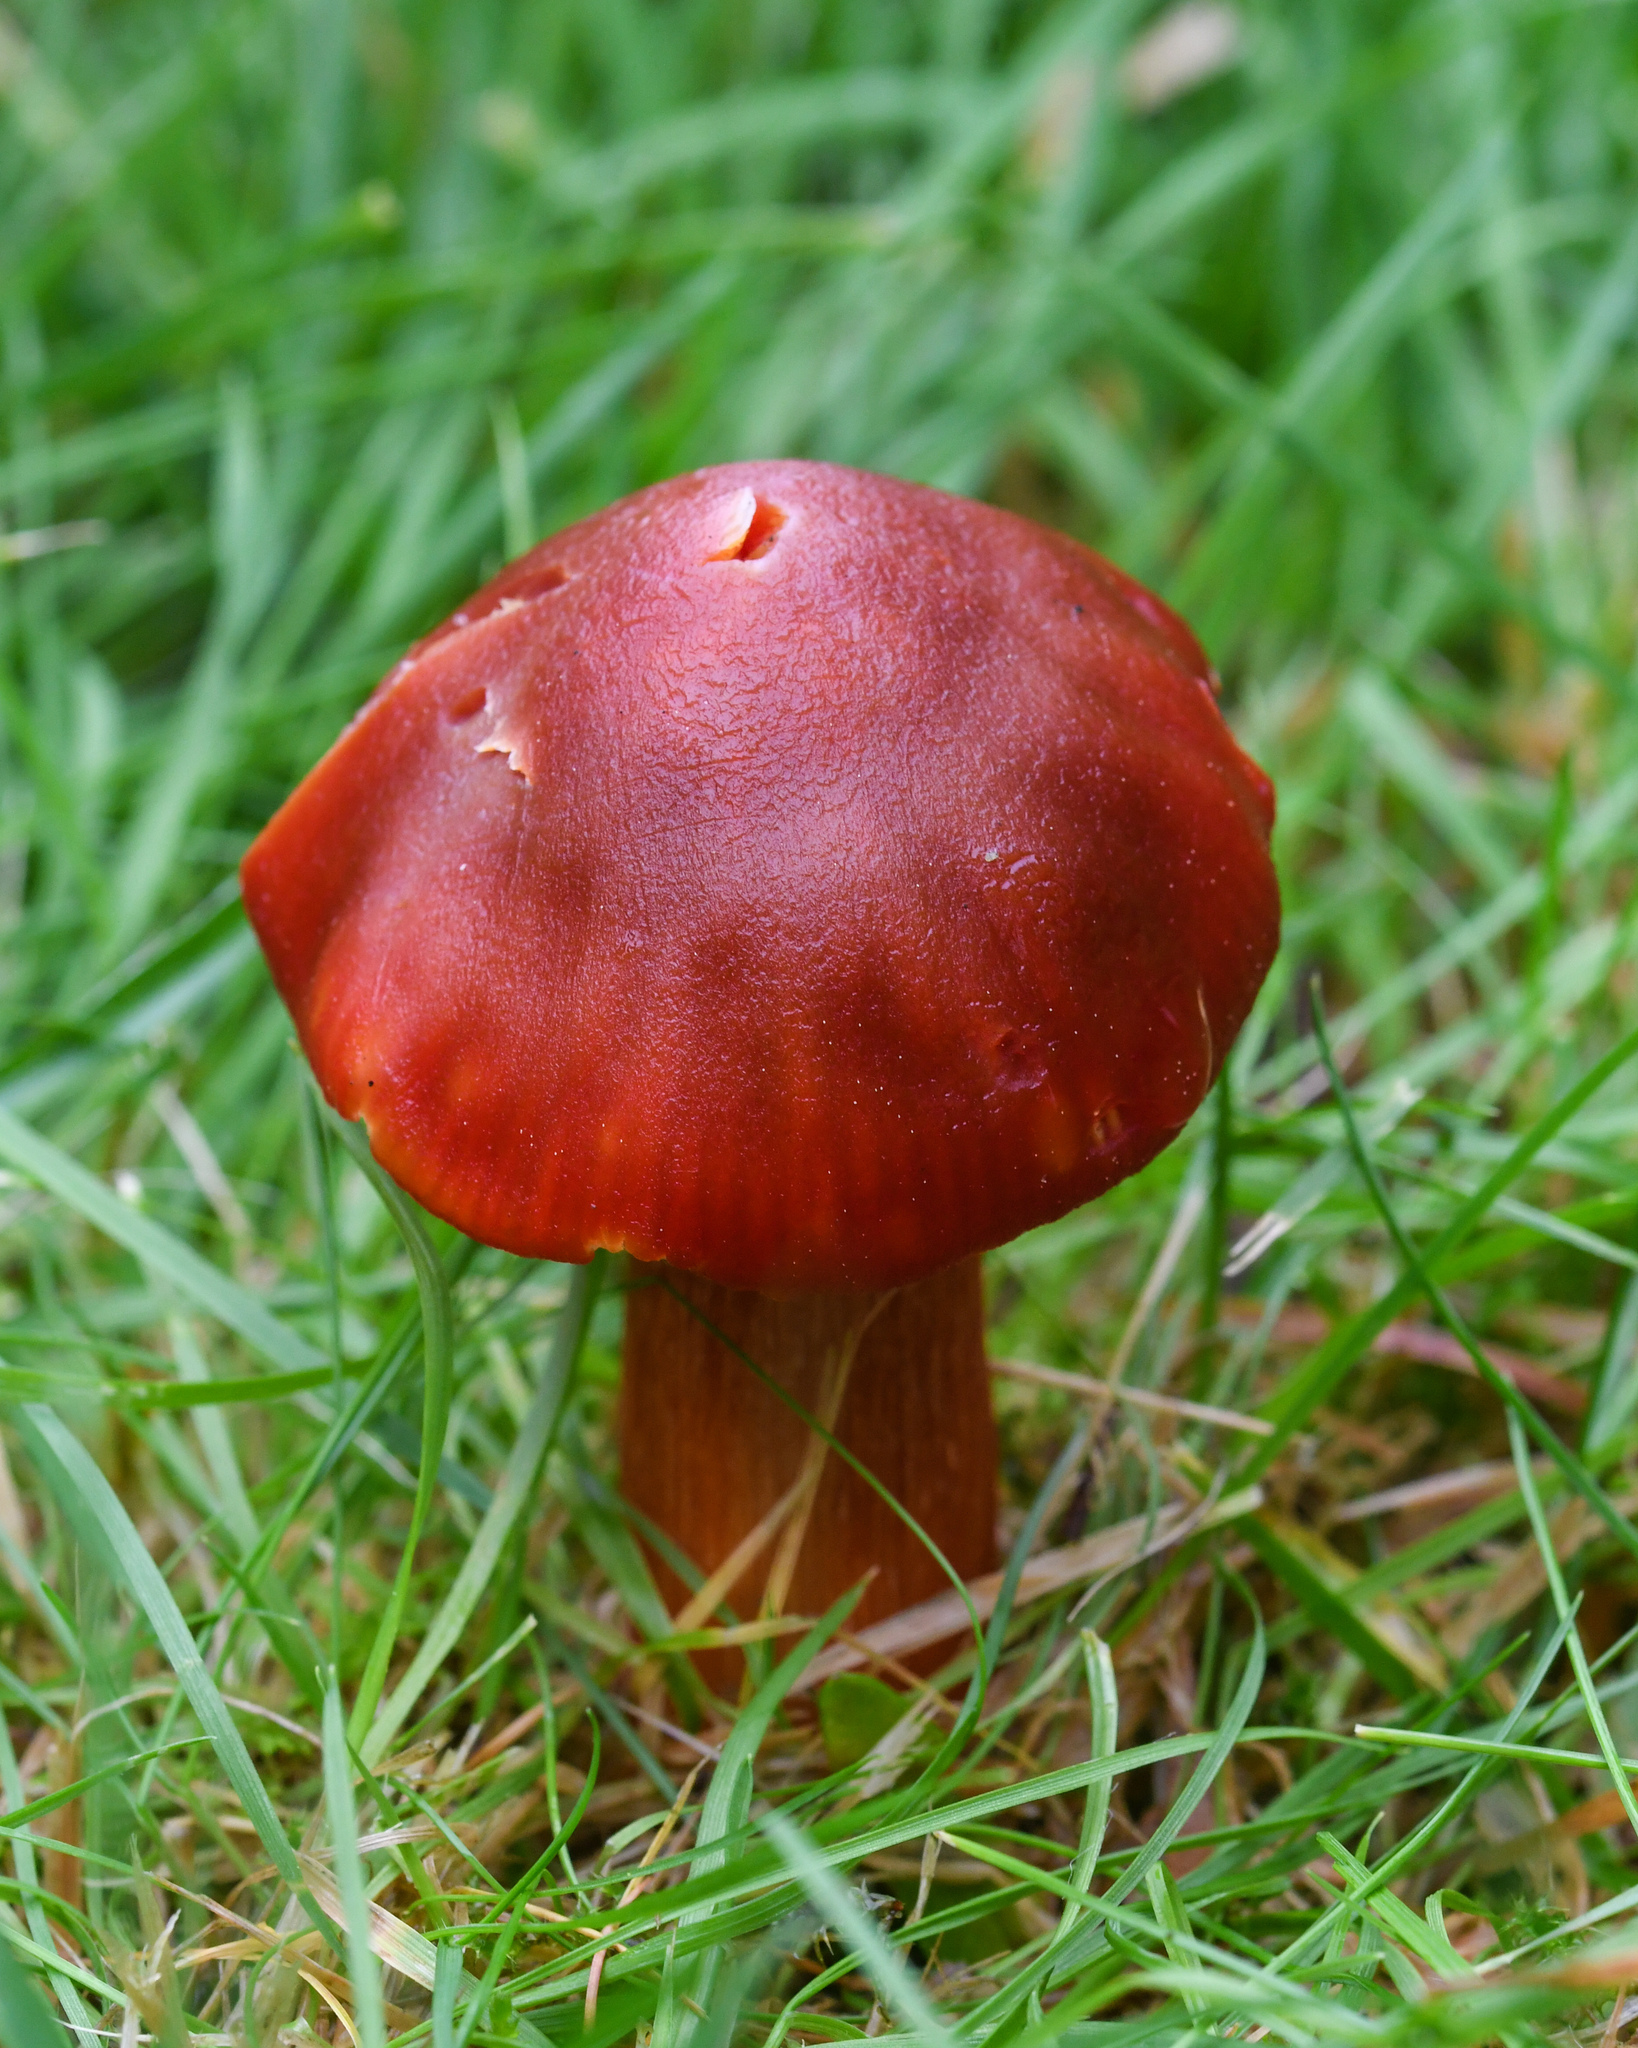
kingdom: Fungi
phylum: Basidiomycota
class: Agaricomycetes
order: Agaricales
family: Hygrophoraceae
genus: Hygrocybe
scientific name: Hygrocybe punicea
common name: Crimson waxcap
